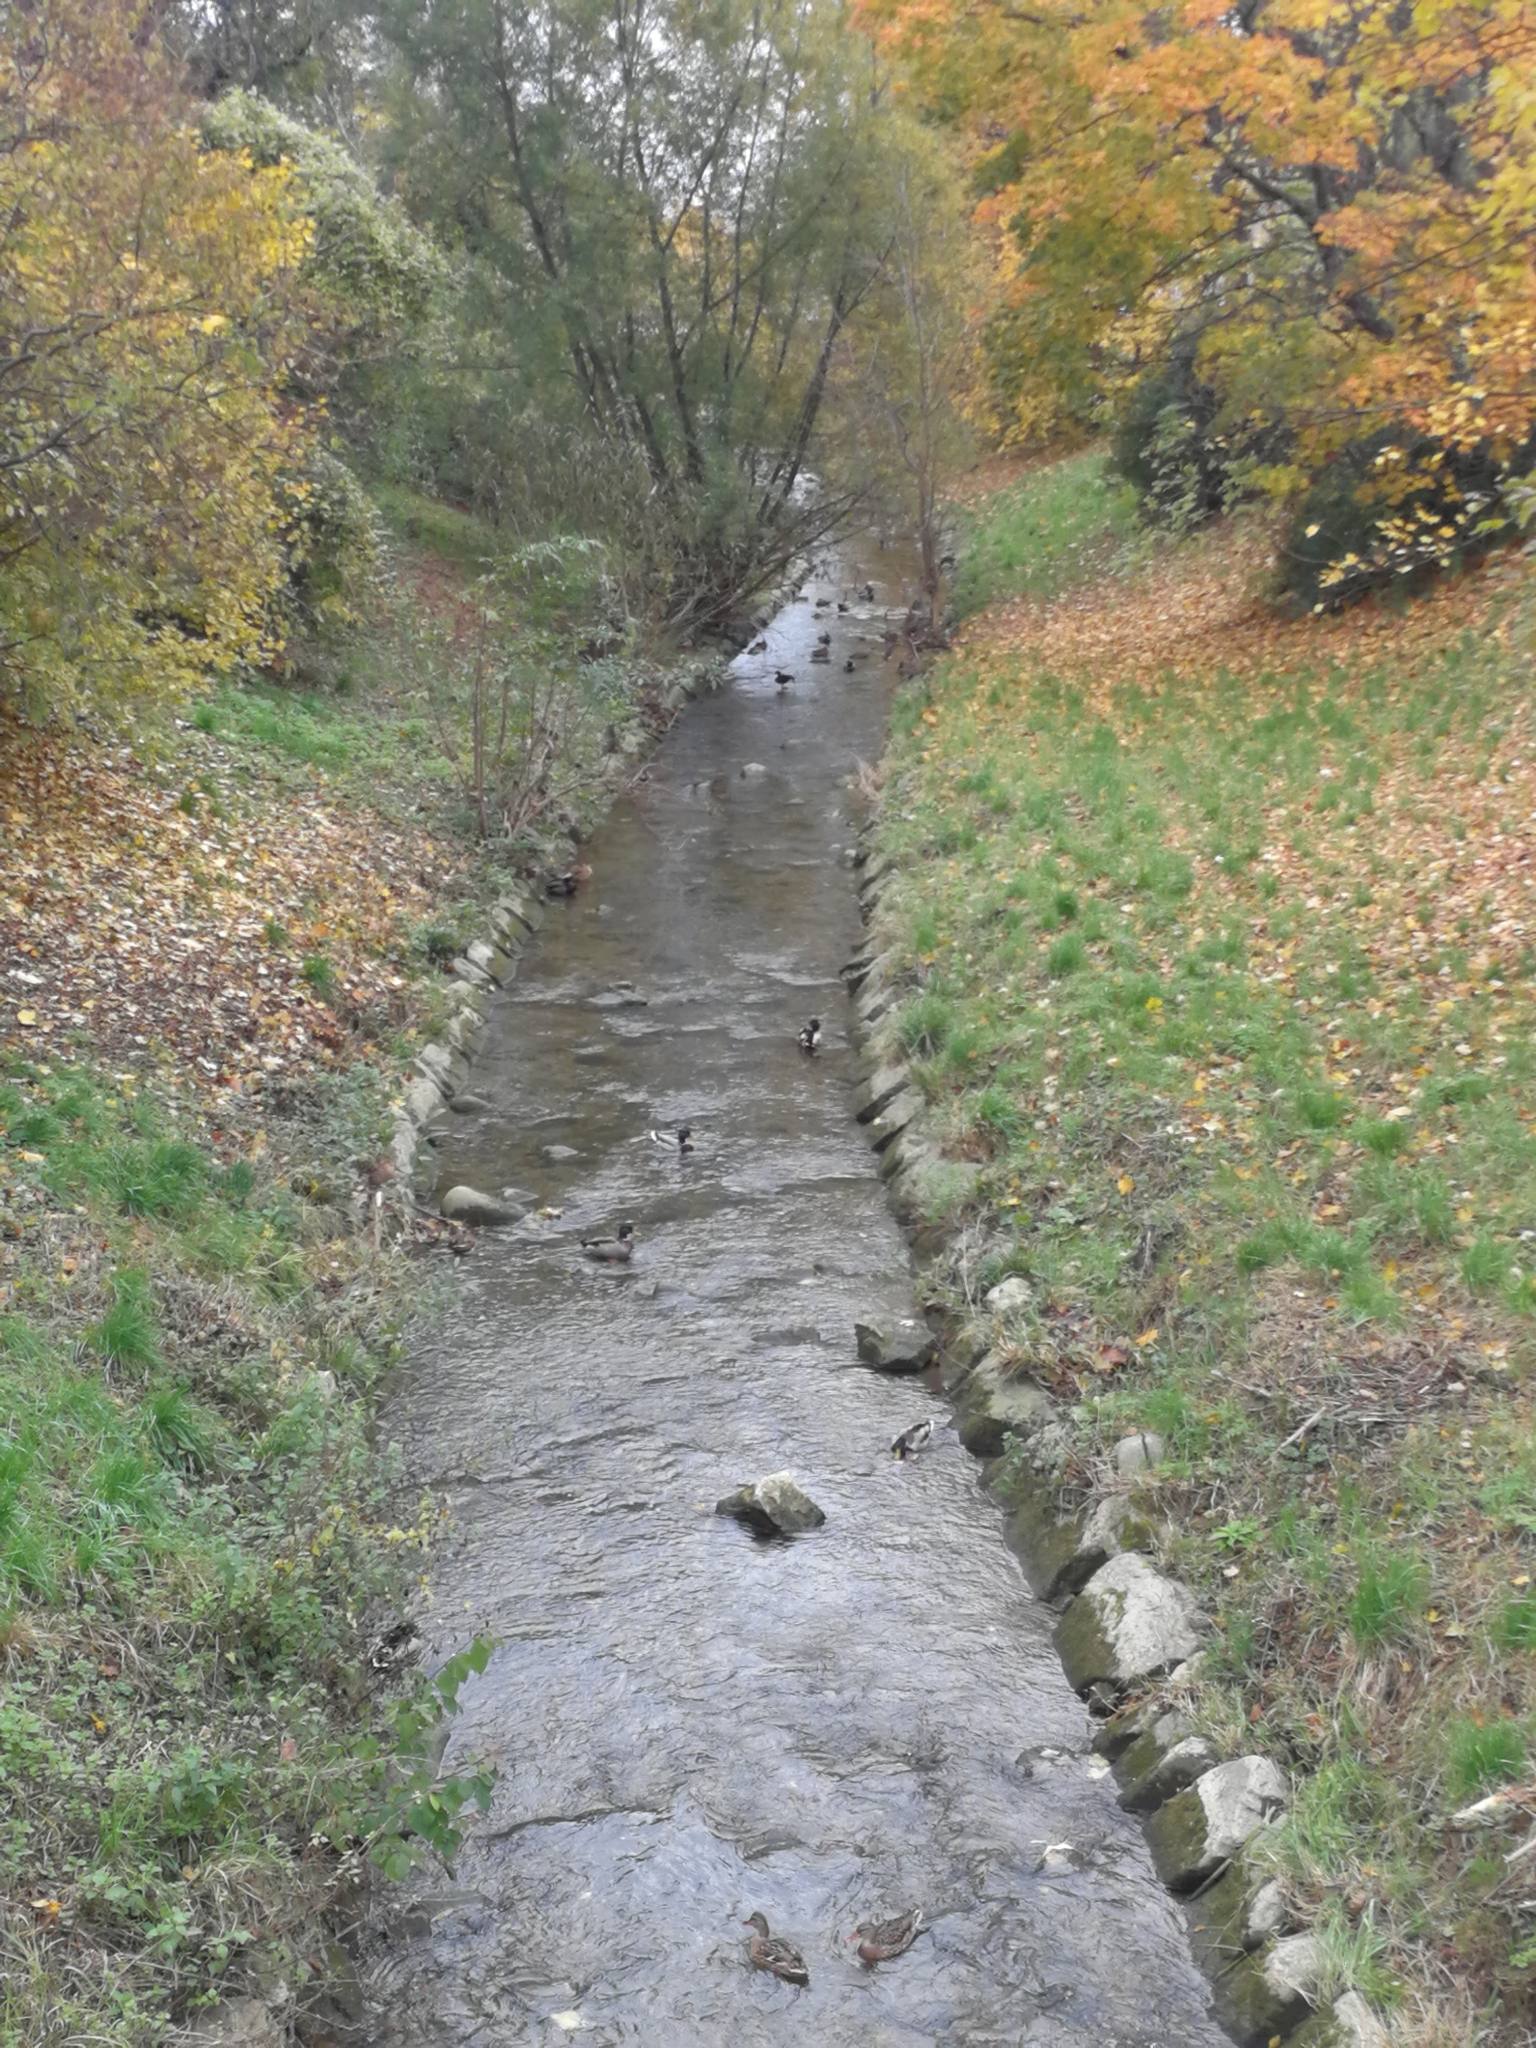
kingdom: Animalia
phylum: Chordata
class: Aves
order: Anseriformes
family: Anatidae
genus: Anas
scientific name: Anas platyrhynchos
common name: Mallard
